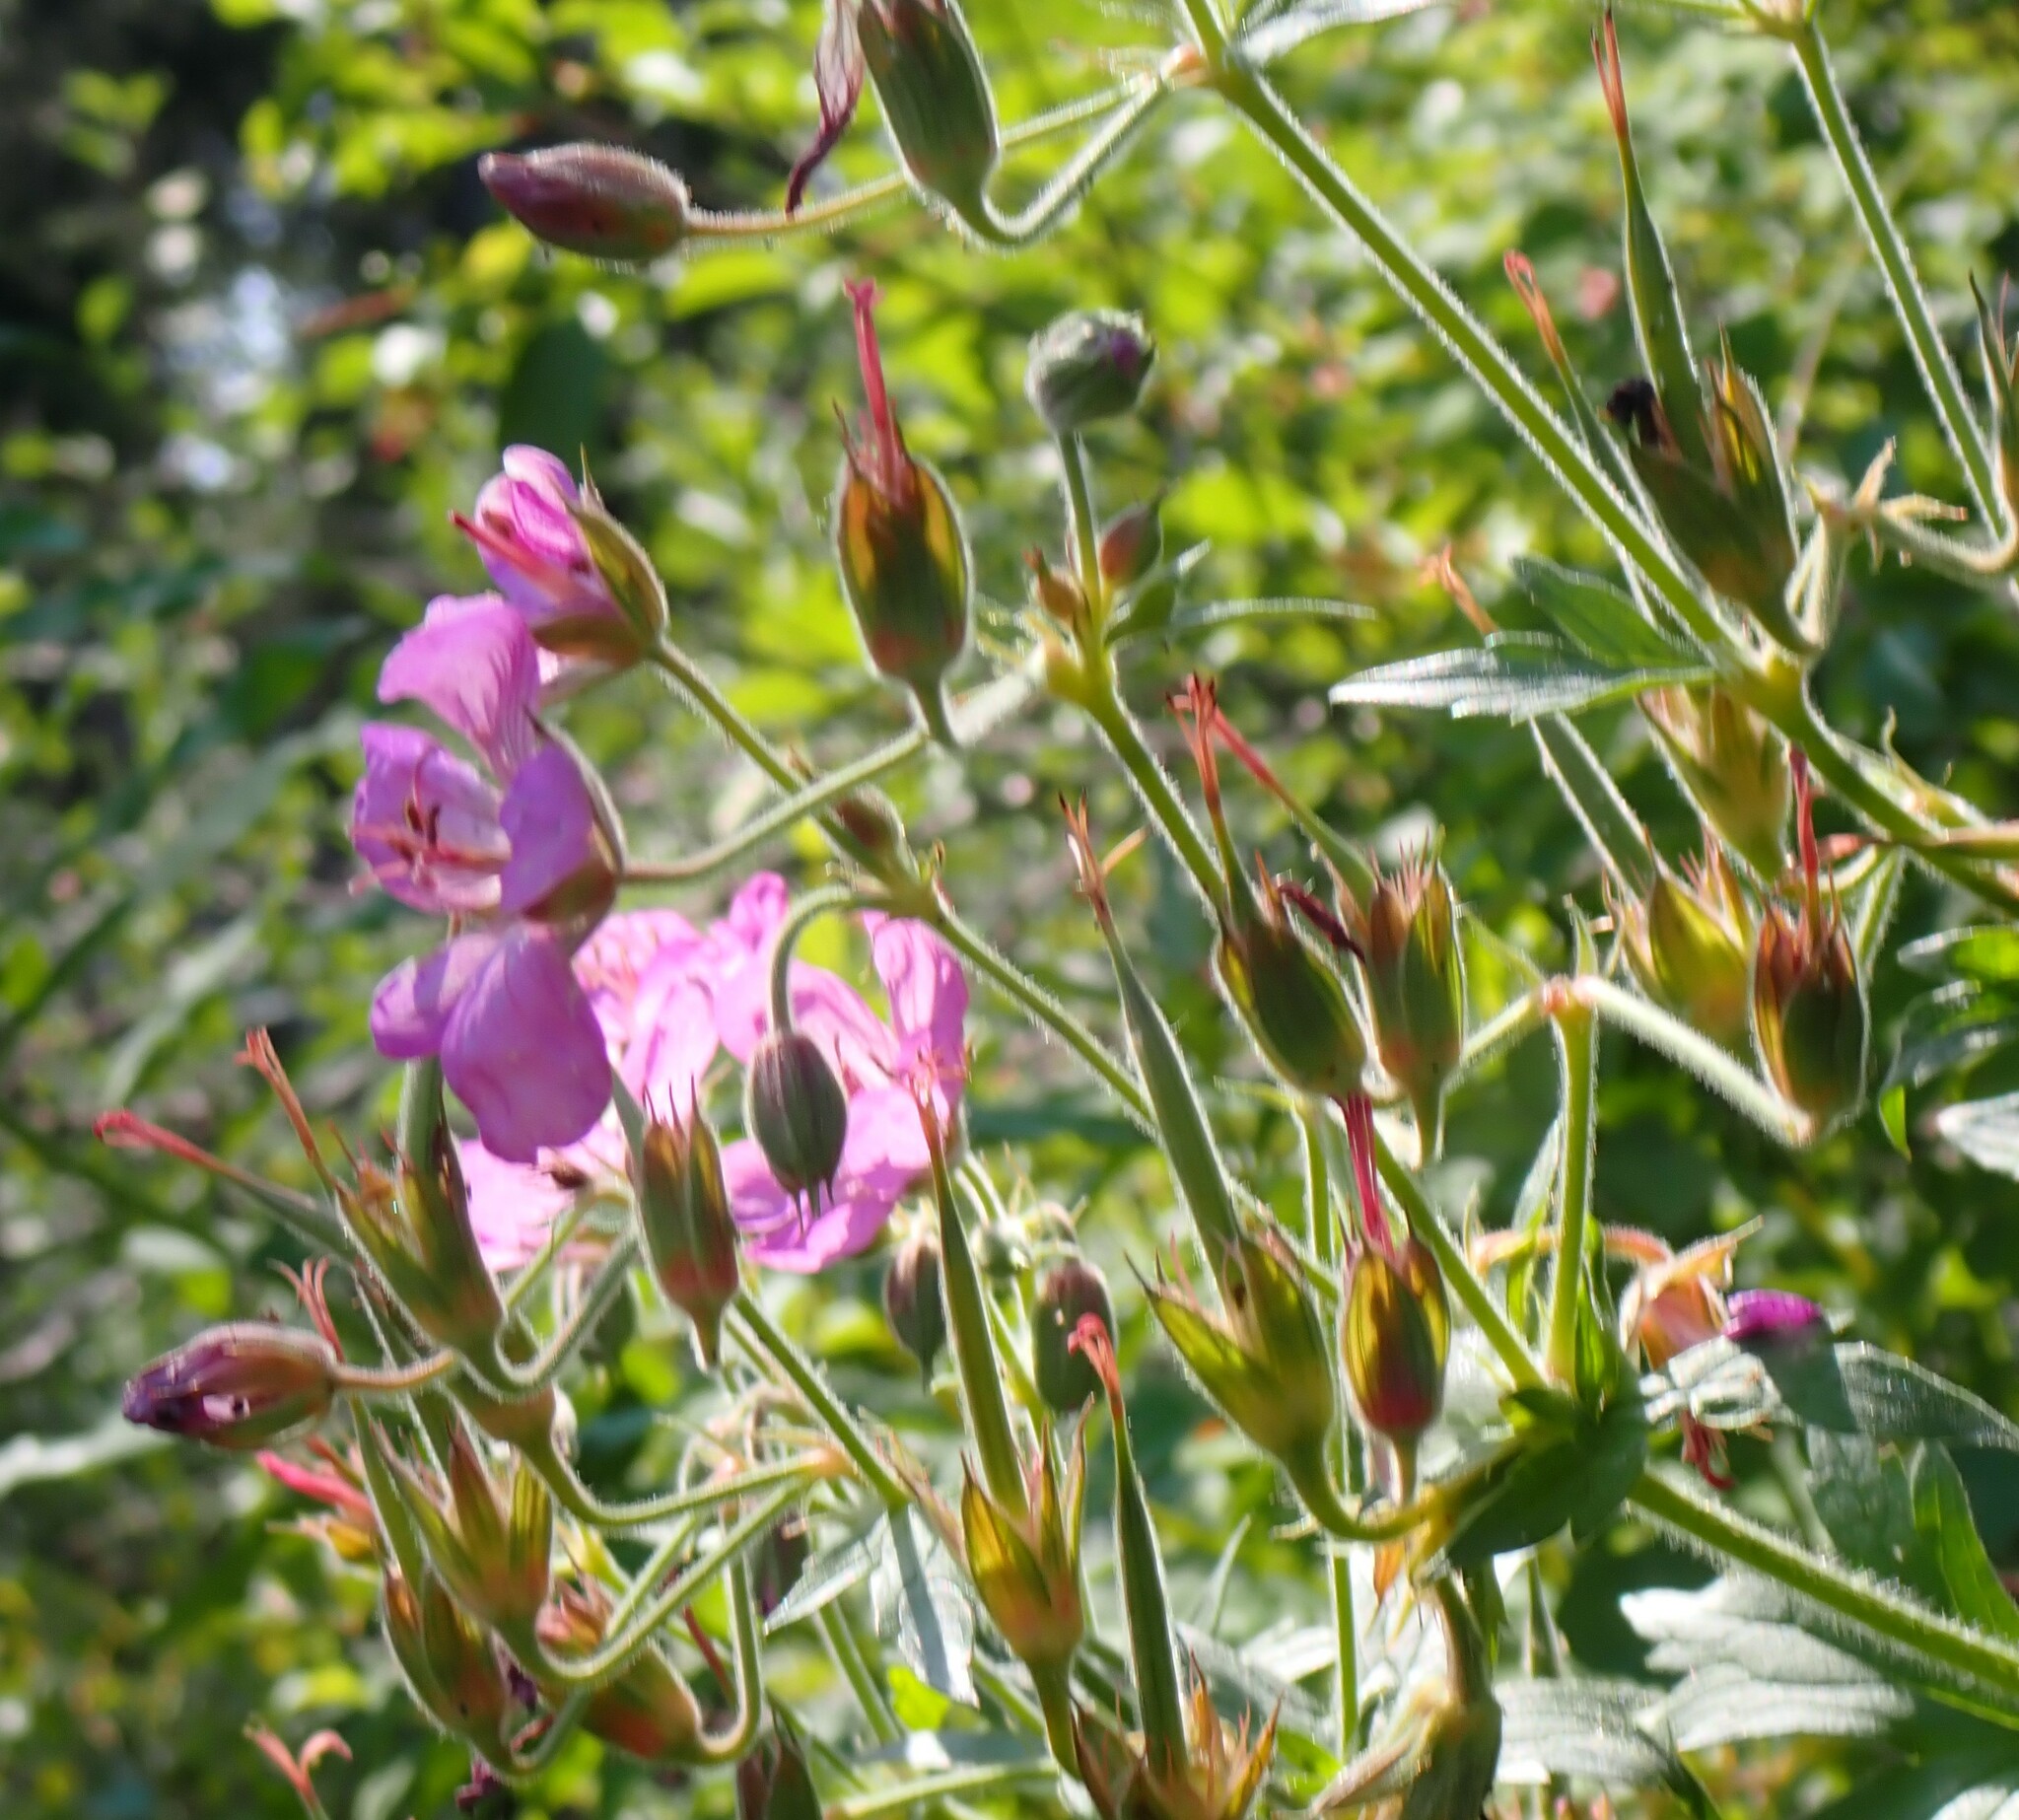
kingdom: Plantae
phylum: Tracheophyta
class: Magnoliopsida
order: Geraniales
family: Geraniaceae
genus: Geranium
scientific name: Geranium viscosissimum
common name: Purple geranium
